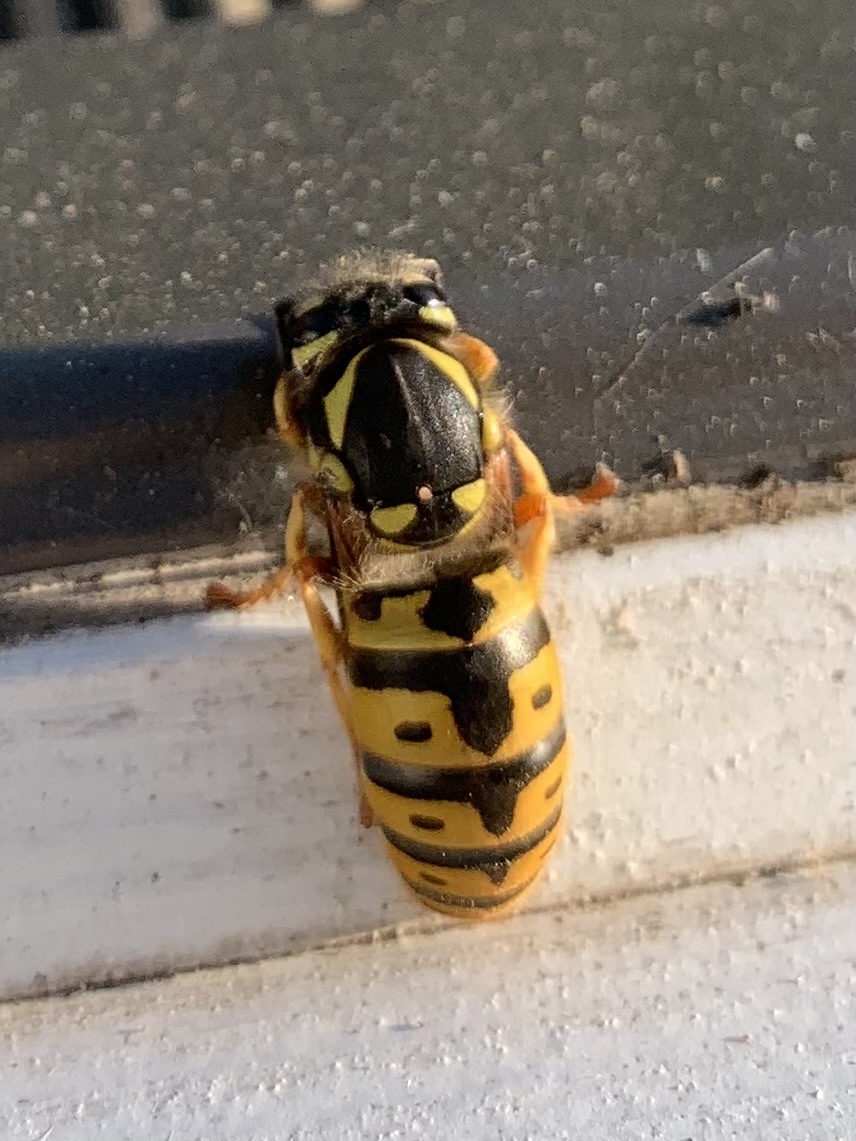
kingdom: Animalia
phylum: Arthropoda
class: Insecta
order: Hymenoptera
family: Vespidae
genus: Vespula
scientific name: Vespula germanica
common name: German wasp
